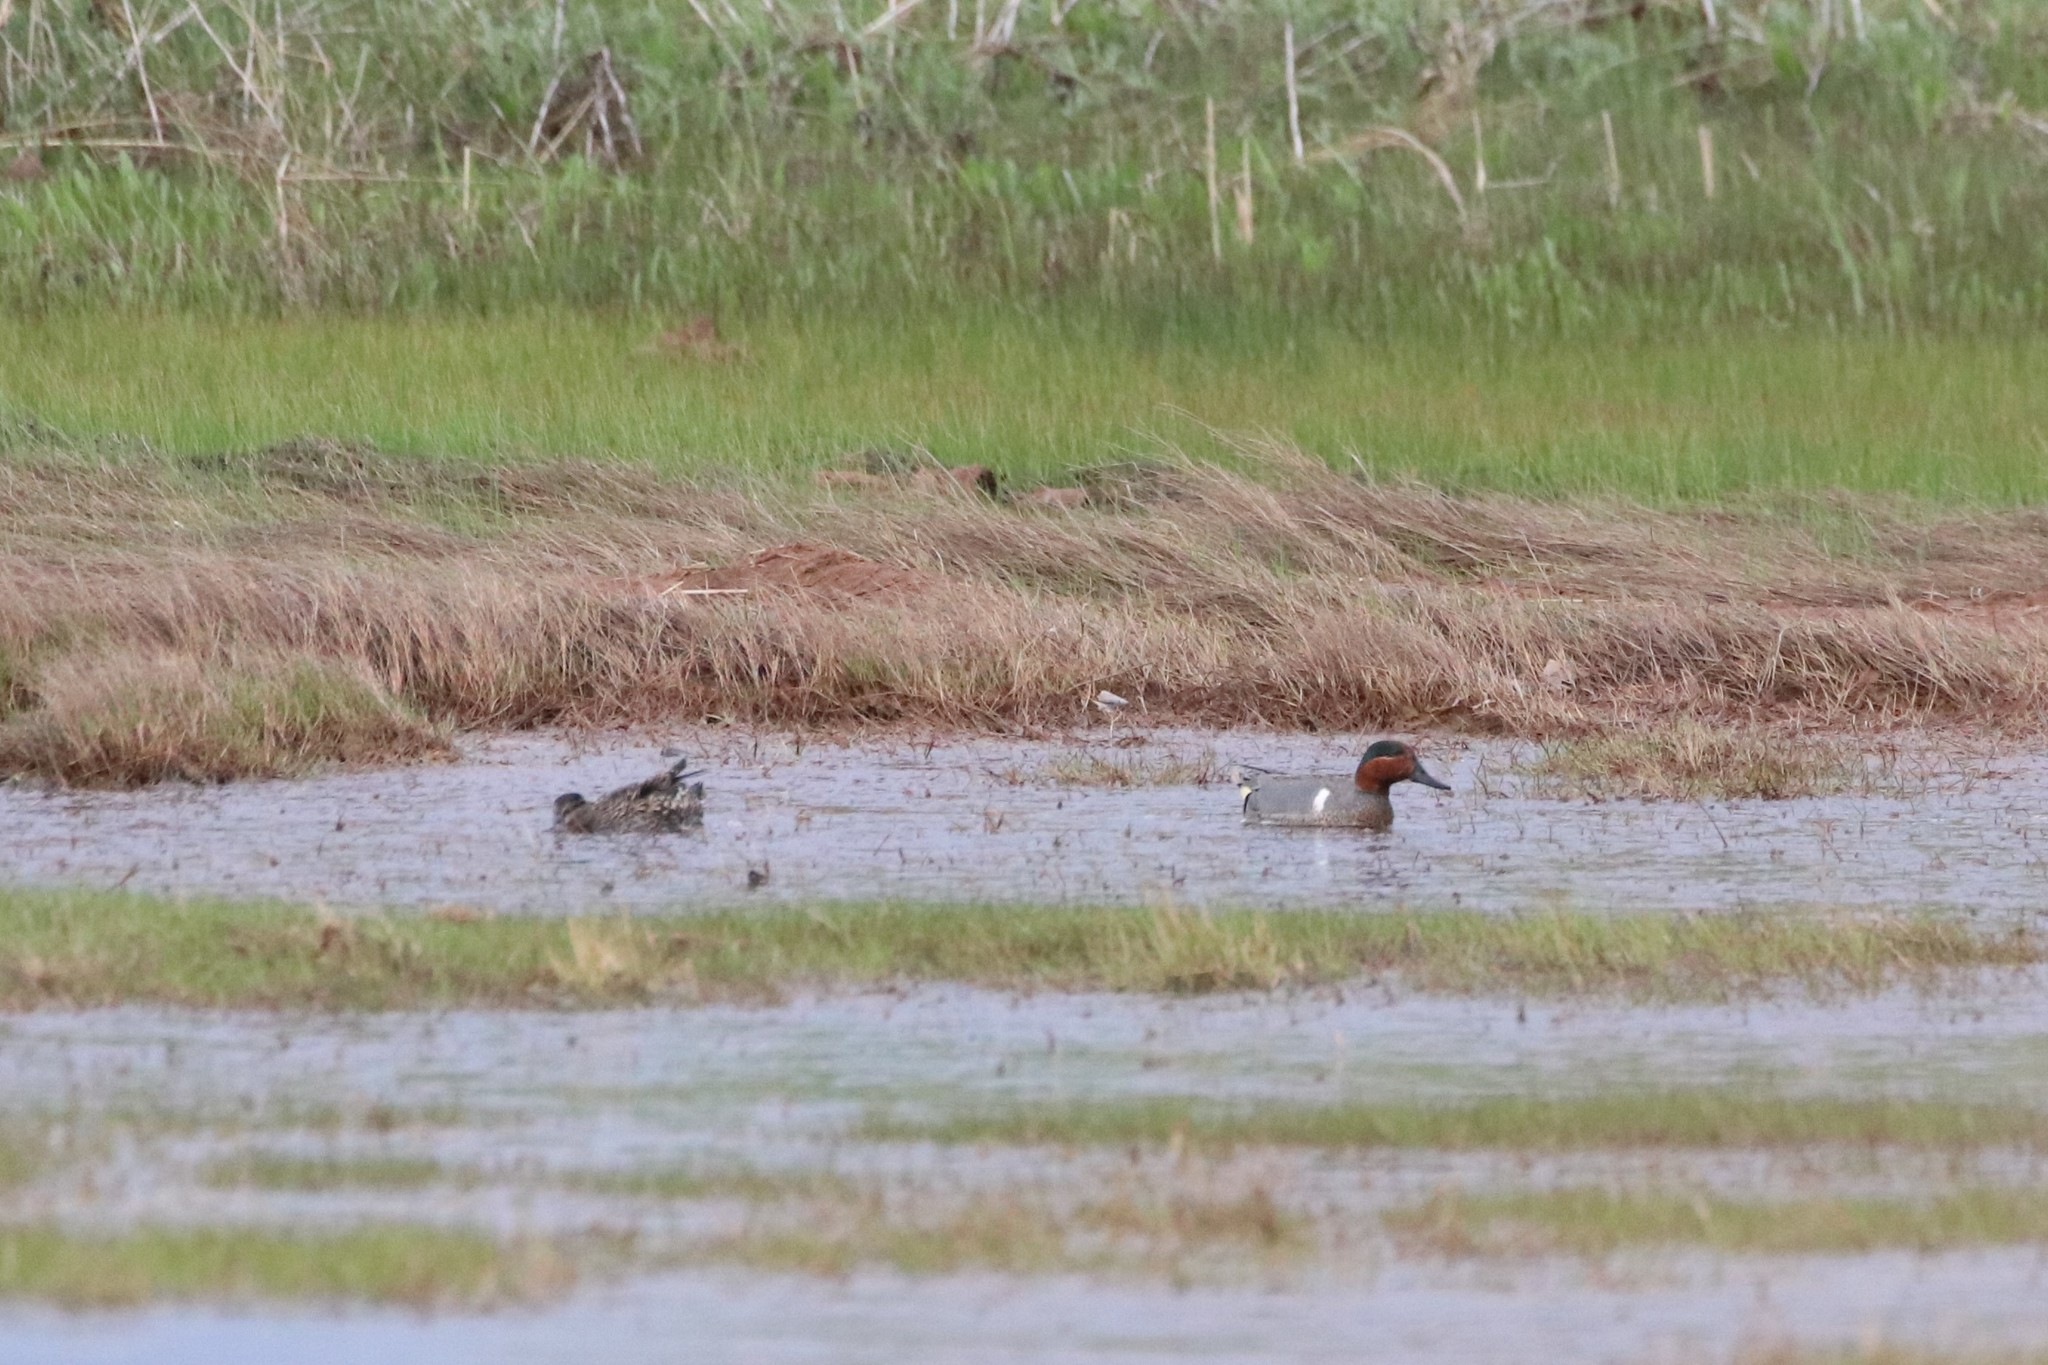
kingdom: Animalia
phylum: Chordata
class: Aves
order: Anseriformes
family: Anatidae
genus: Anas
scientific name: Anas crecca
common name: Eurasian teal
